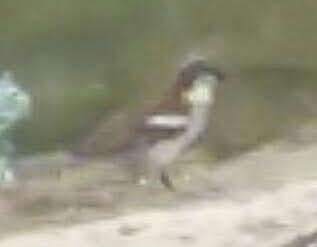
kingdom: Animalia
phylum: Chordata
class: Aves
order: Passeriformes
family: Passeridae
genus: Passer
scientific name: Passer domesticus
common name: House sparrow
